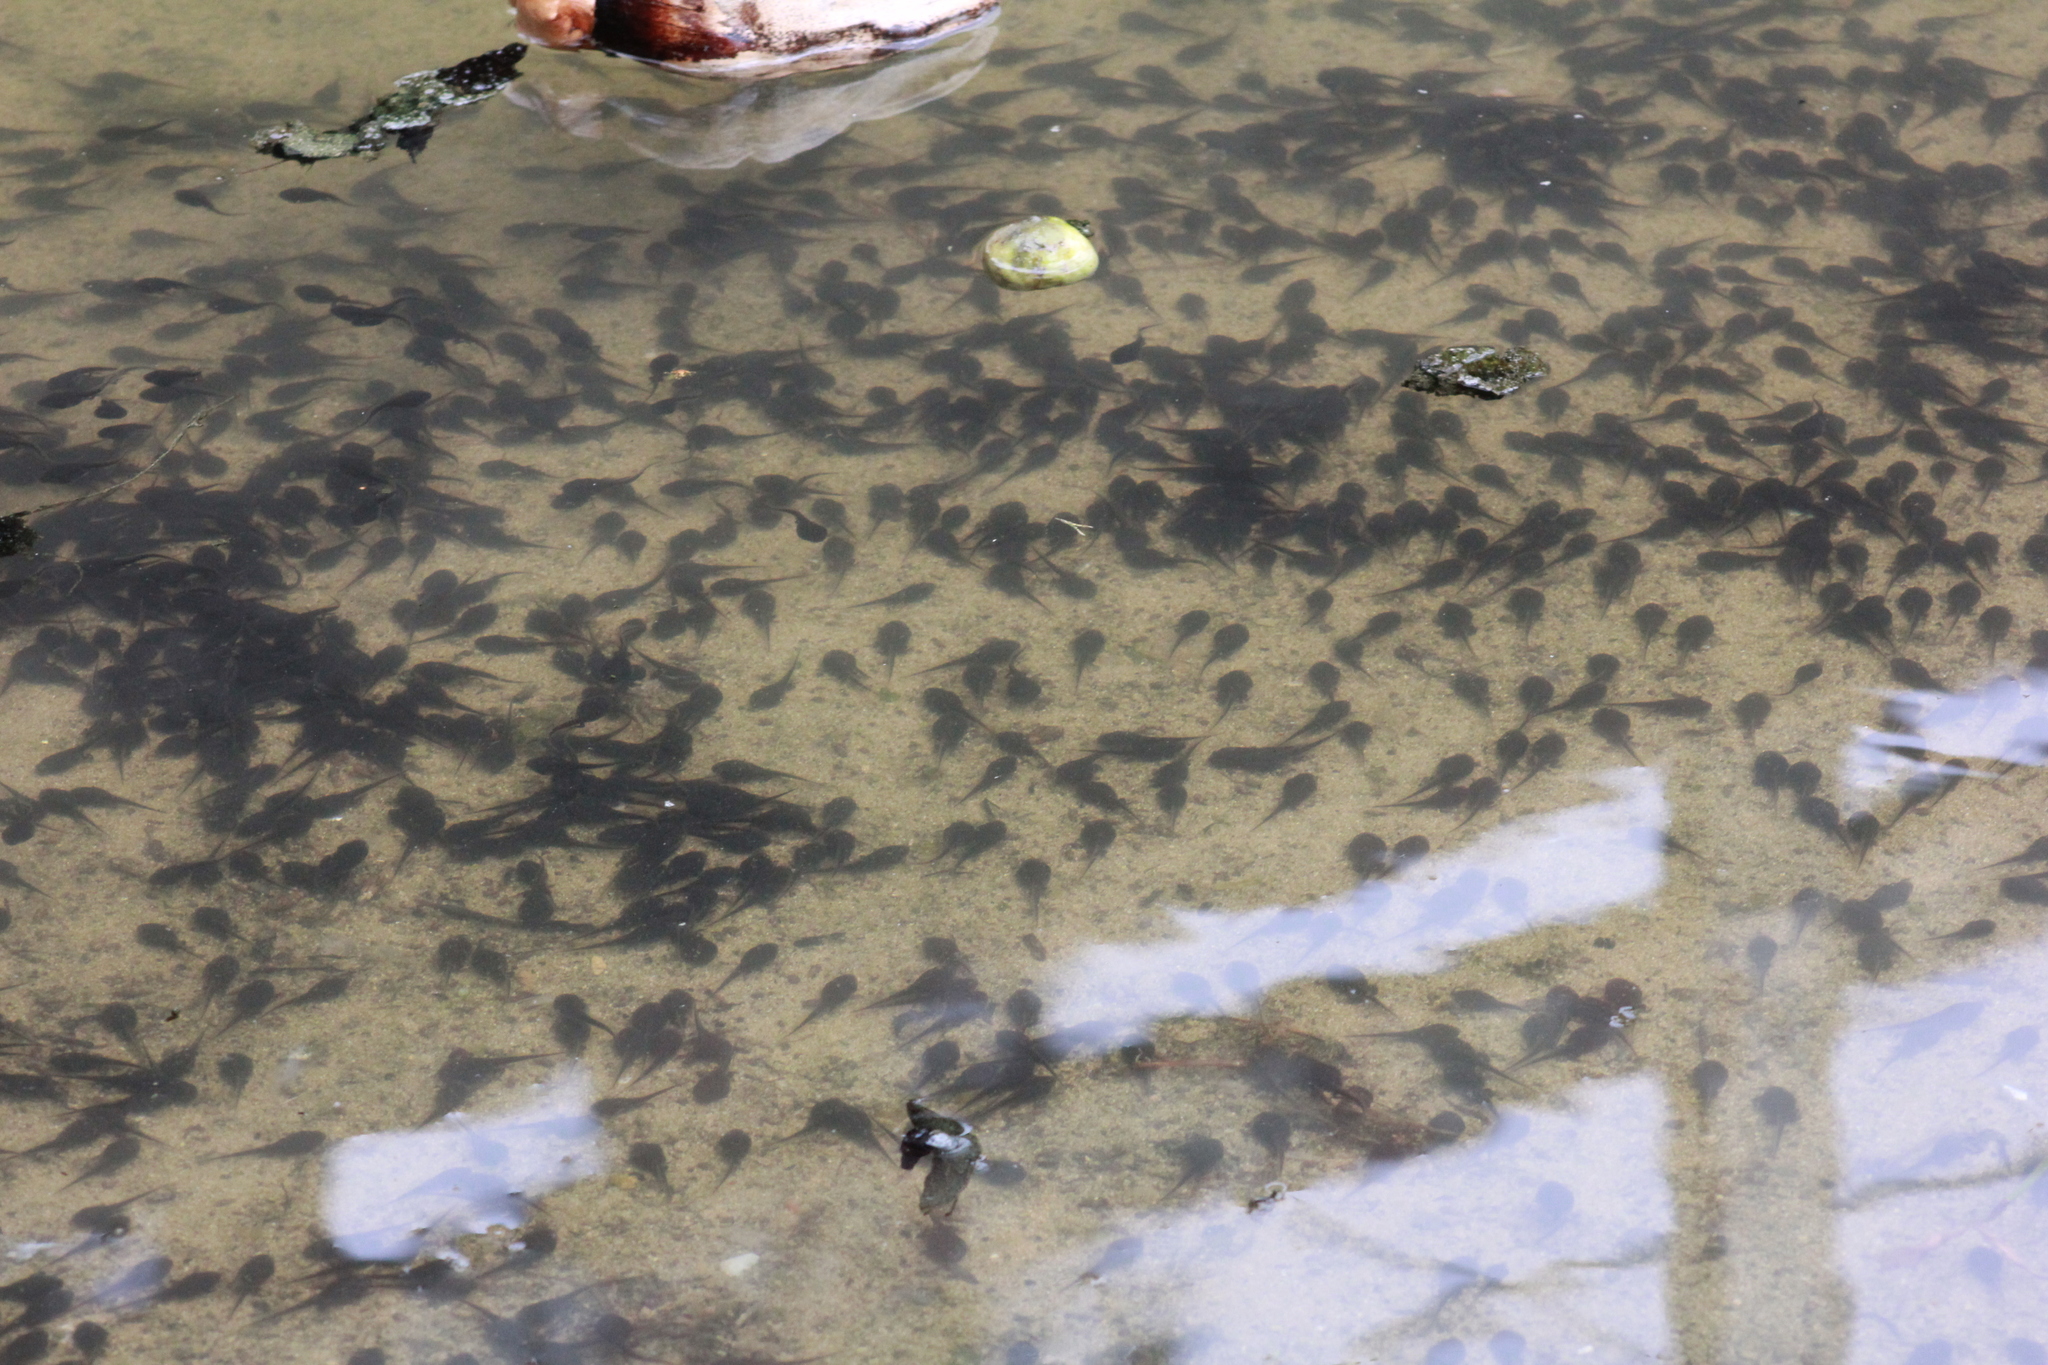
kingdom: Animalia
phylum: Chordata
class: Amphibia
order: Anura
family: Bufonidae
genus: Rhinella
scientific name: Rhinella marina
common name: Cane toad
